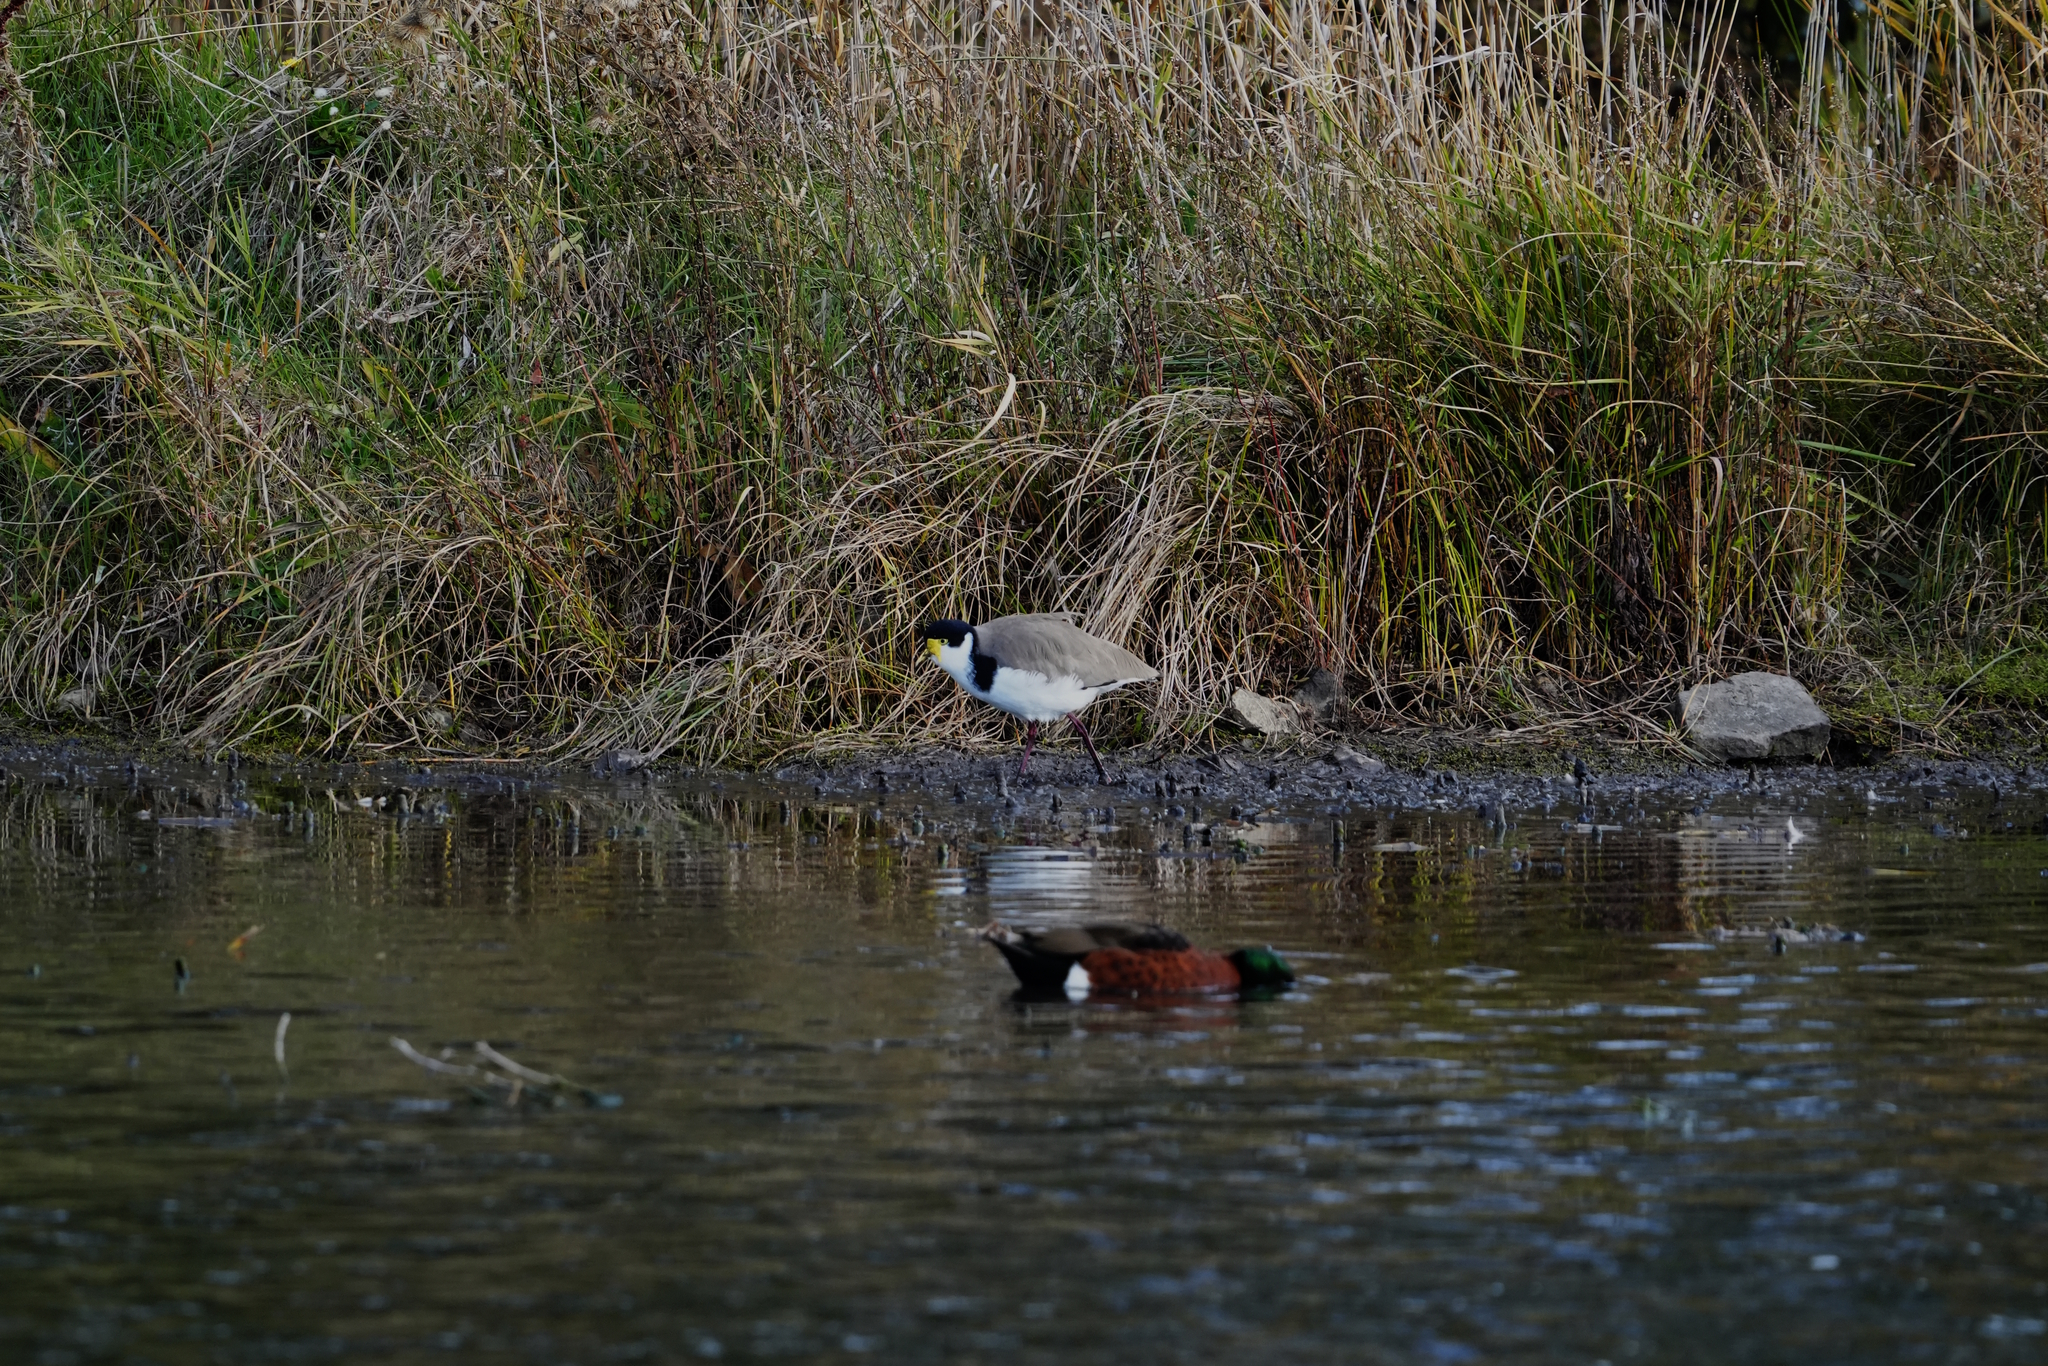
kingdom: Animalia
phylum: Chordata
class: Aves
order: Charadriiformes
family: Charadriidae
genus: Vanellus
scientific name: Vanellus miles
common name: Masked lapwing
